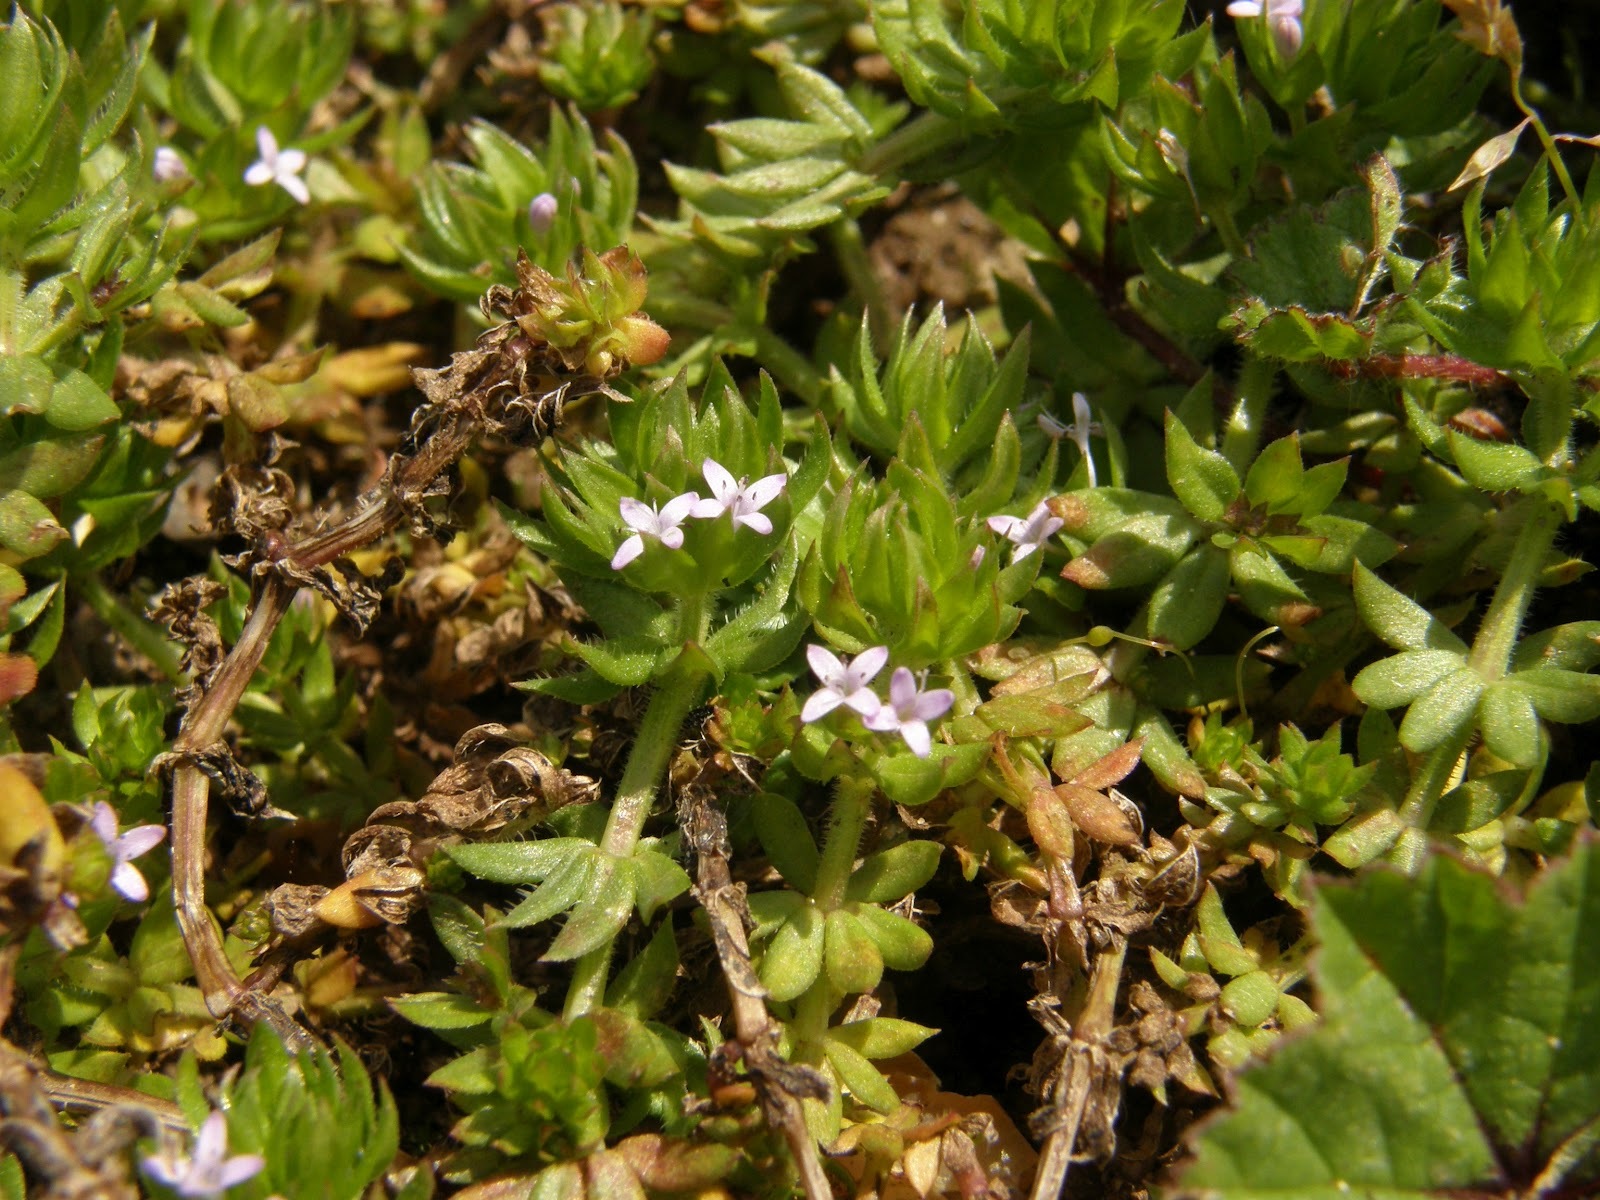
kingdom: Plantae
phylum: Tracheophyta
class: Magnoliopsida
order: Gentianales
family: Rubiaceae
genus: Sherardia
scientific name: Sherardia arvensis
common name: Field madder
